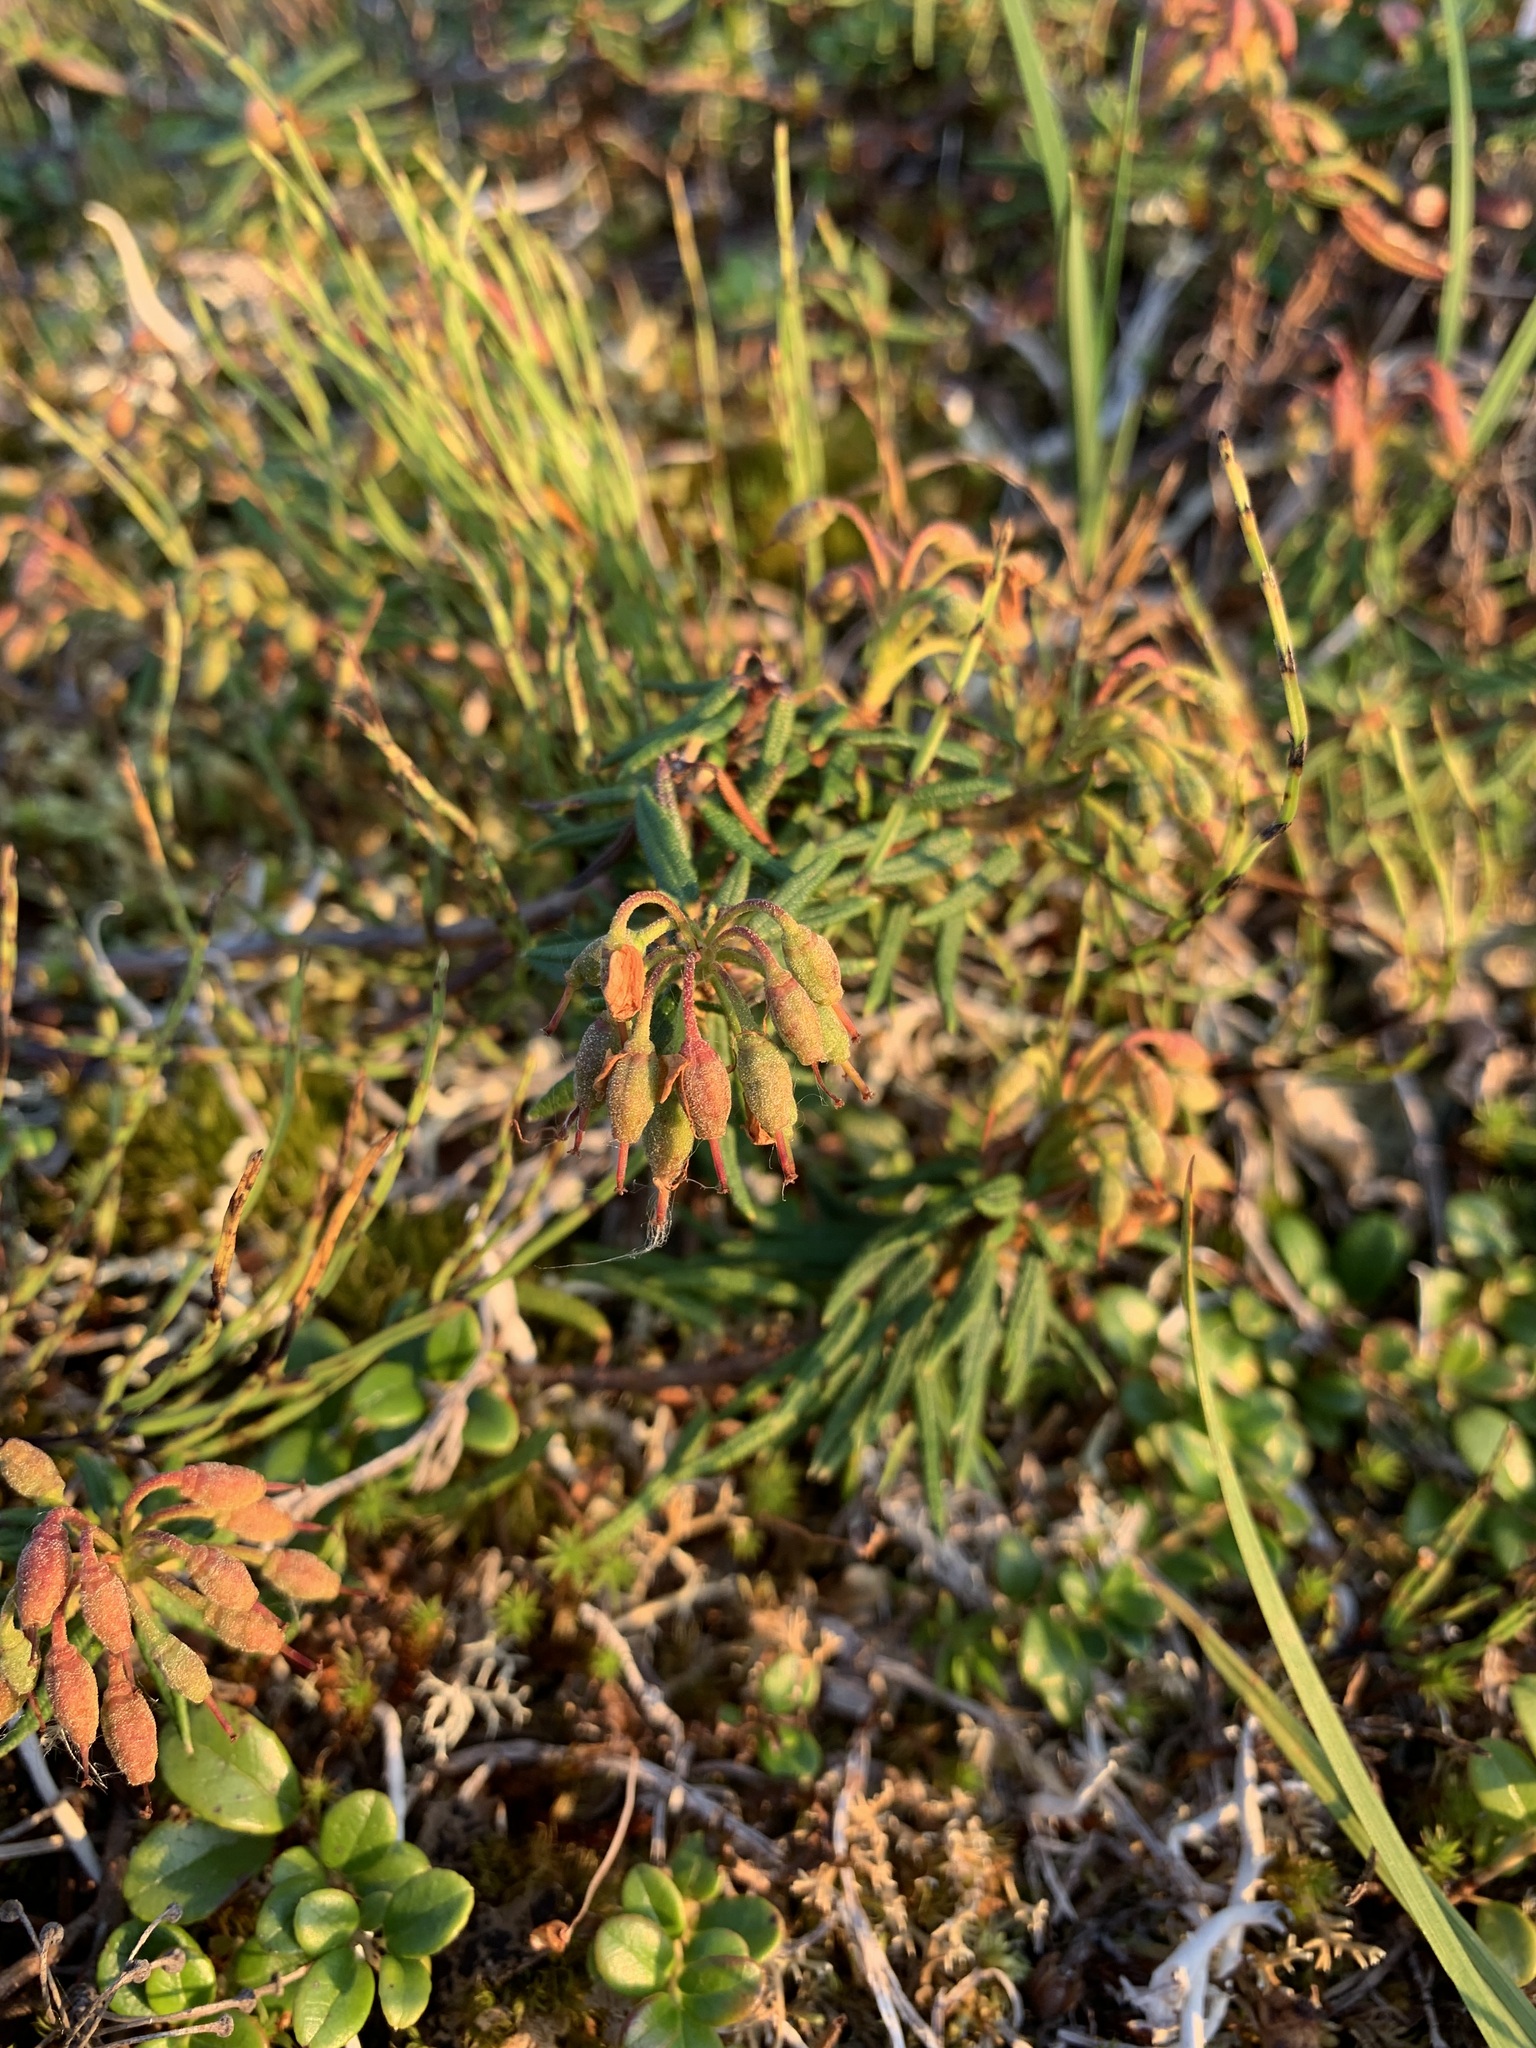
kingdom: Plantae
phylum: Tracheophyta
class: Magnoliopsida
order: Ericales
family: Ericaceae
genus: Rhododendron
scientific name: Rhododendron tomentosum
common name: Marsh labrador tea
